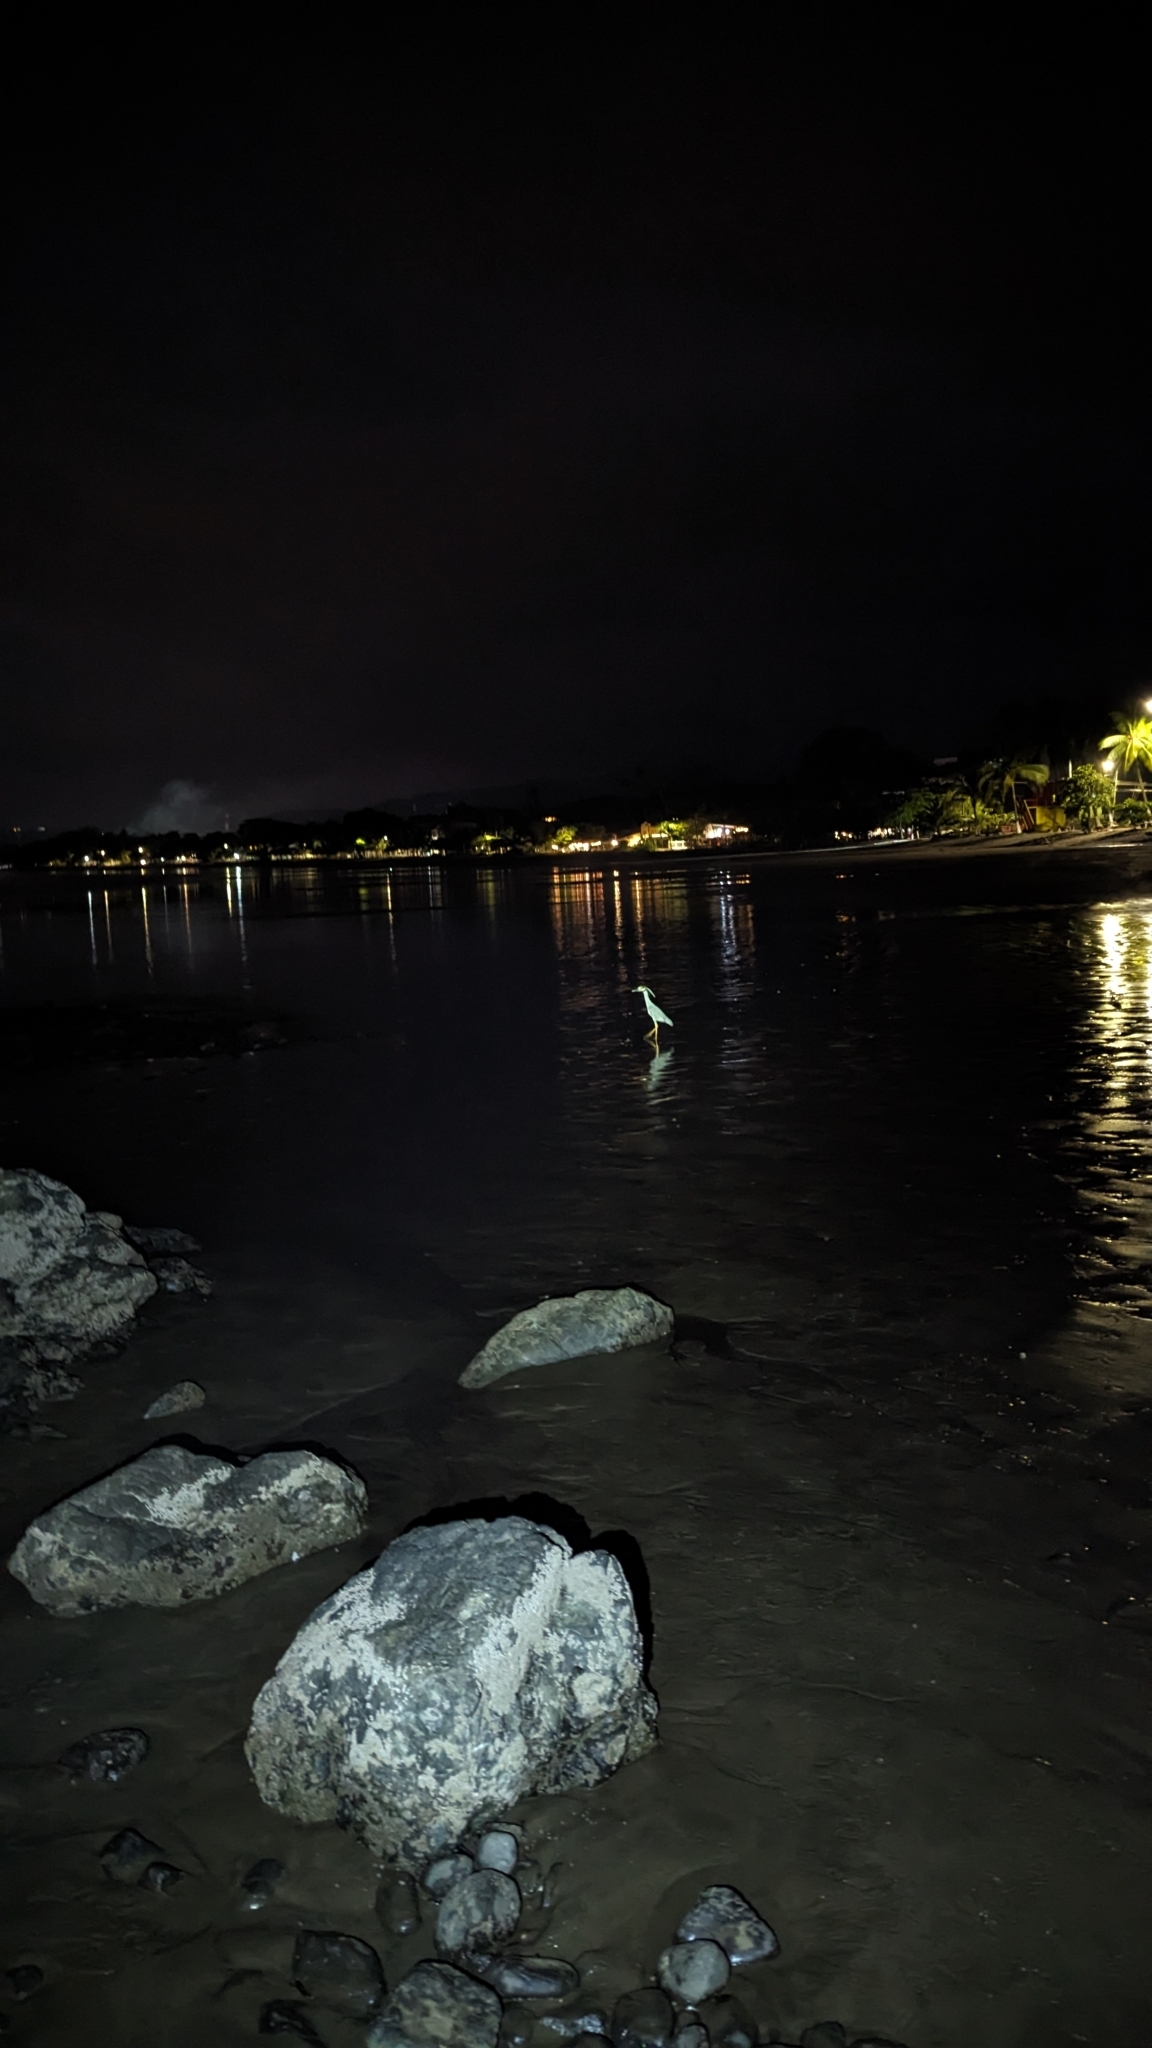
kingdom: Animalia
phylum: Chordata
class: Aves
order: Pelecaniformes
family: Ardeidae
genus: Nyctanassa
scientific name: Nyctanassa violacea
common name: Yellow-crowned night heron
